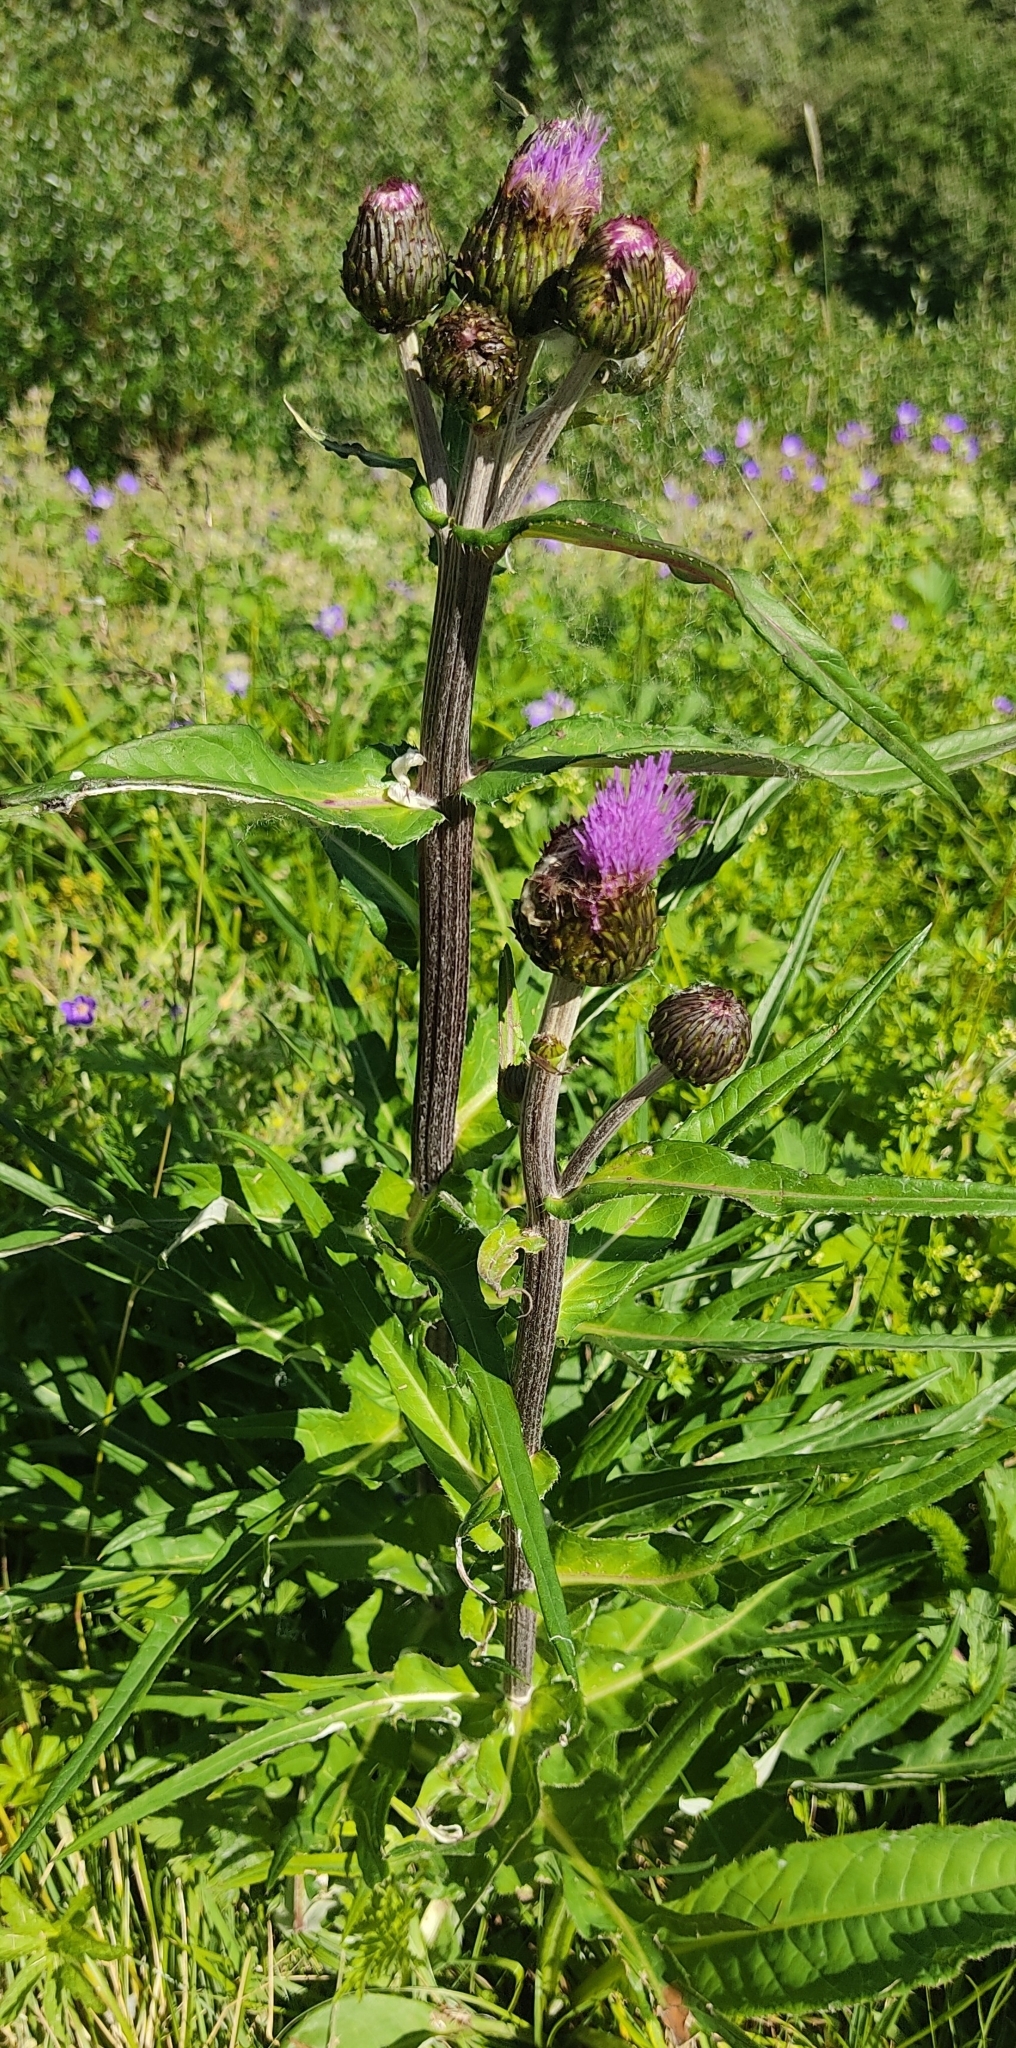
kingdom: Plantae
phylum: Tracheophyta
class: Magnoliopsida
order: Asterales
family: Asteraceae
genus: Cirsium
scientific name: Cirsium heterophyllum
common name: Melancholy thistle
